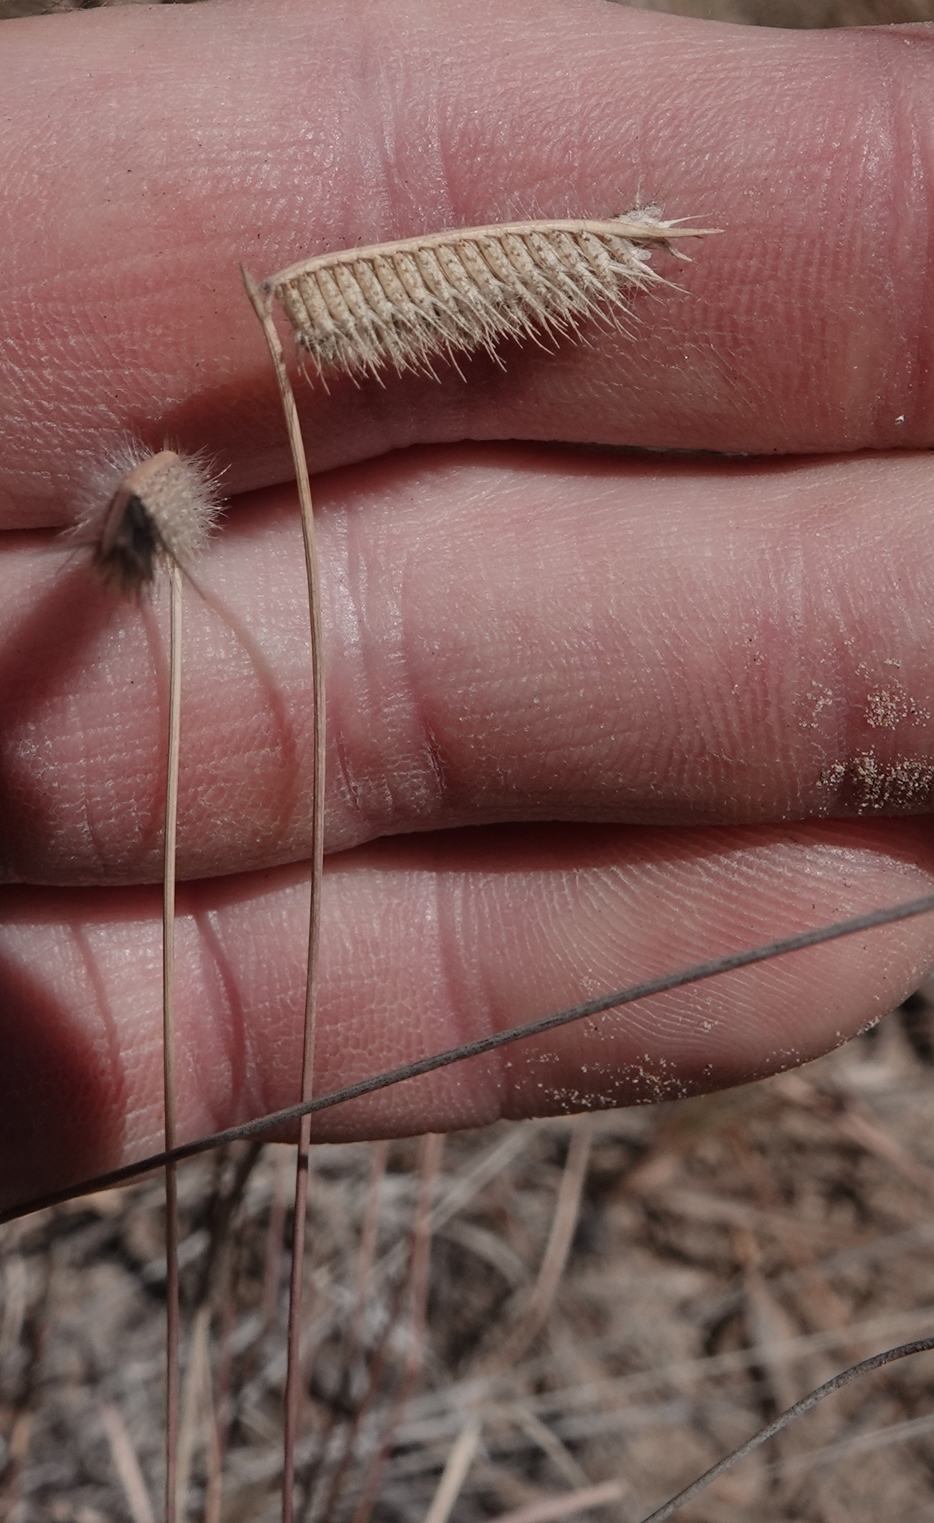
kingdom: Plantae
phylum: Tracheophyta
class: Liliopsida
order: Poales
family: Poaceae
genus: Bouteloua
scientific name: Bouteloua hirsuta
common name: Hairy grama
